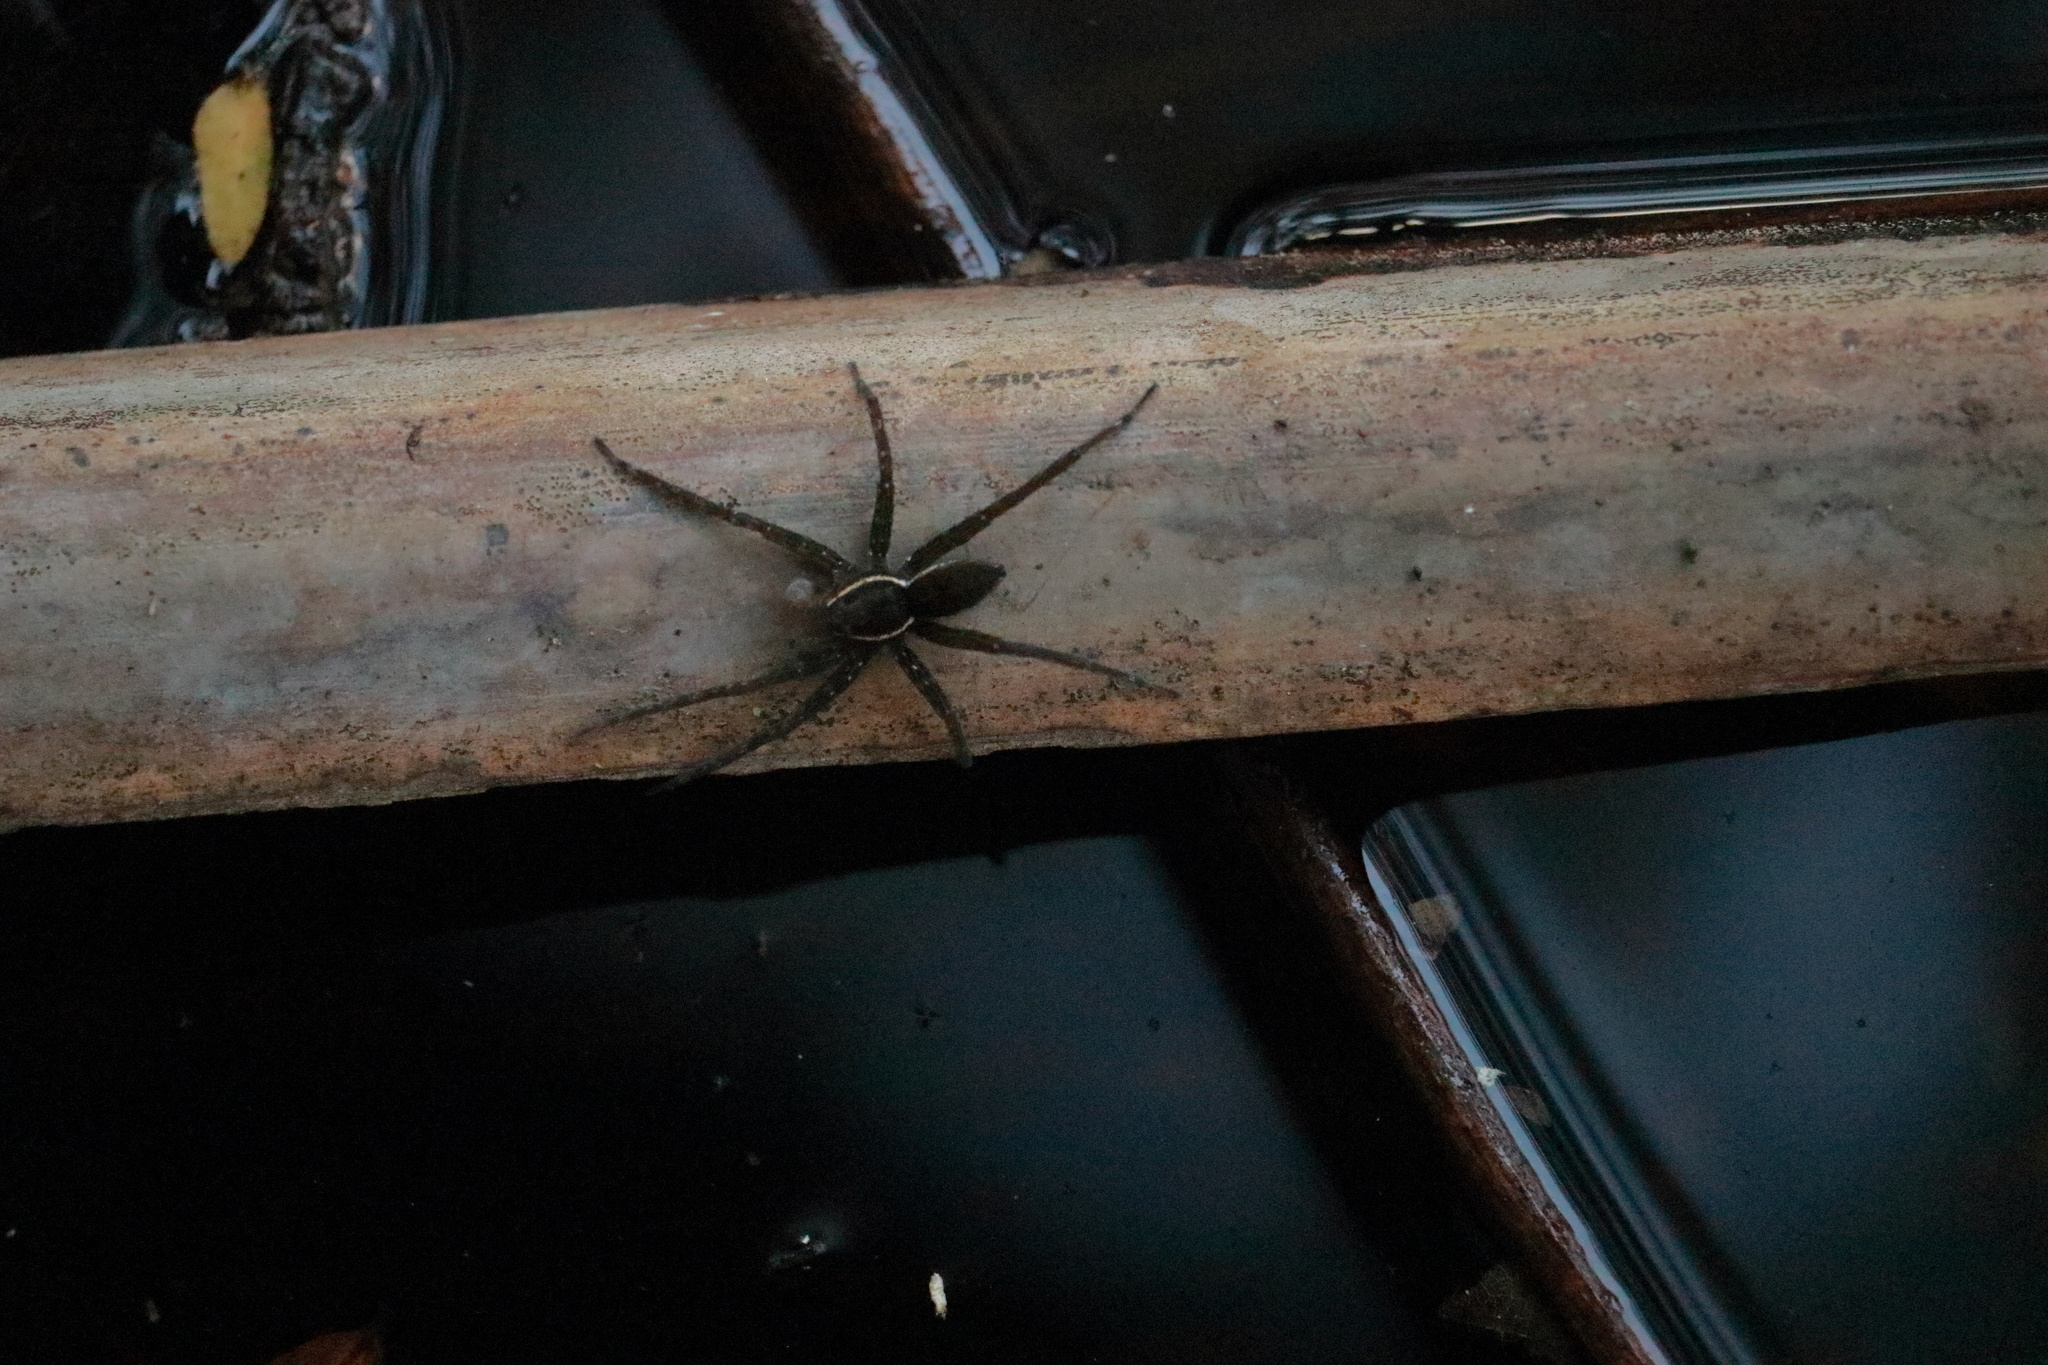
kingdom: Animalia
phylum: Arthropoda
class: Arachnida
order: Araneae
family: Pisauridae
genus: Dolomedes
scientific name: Dolomedes triton
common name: Six-spotted fishing spider
